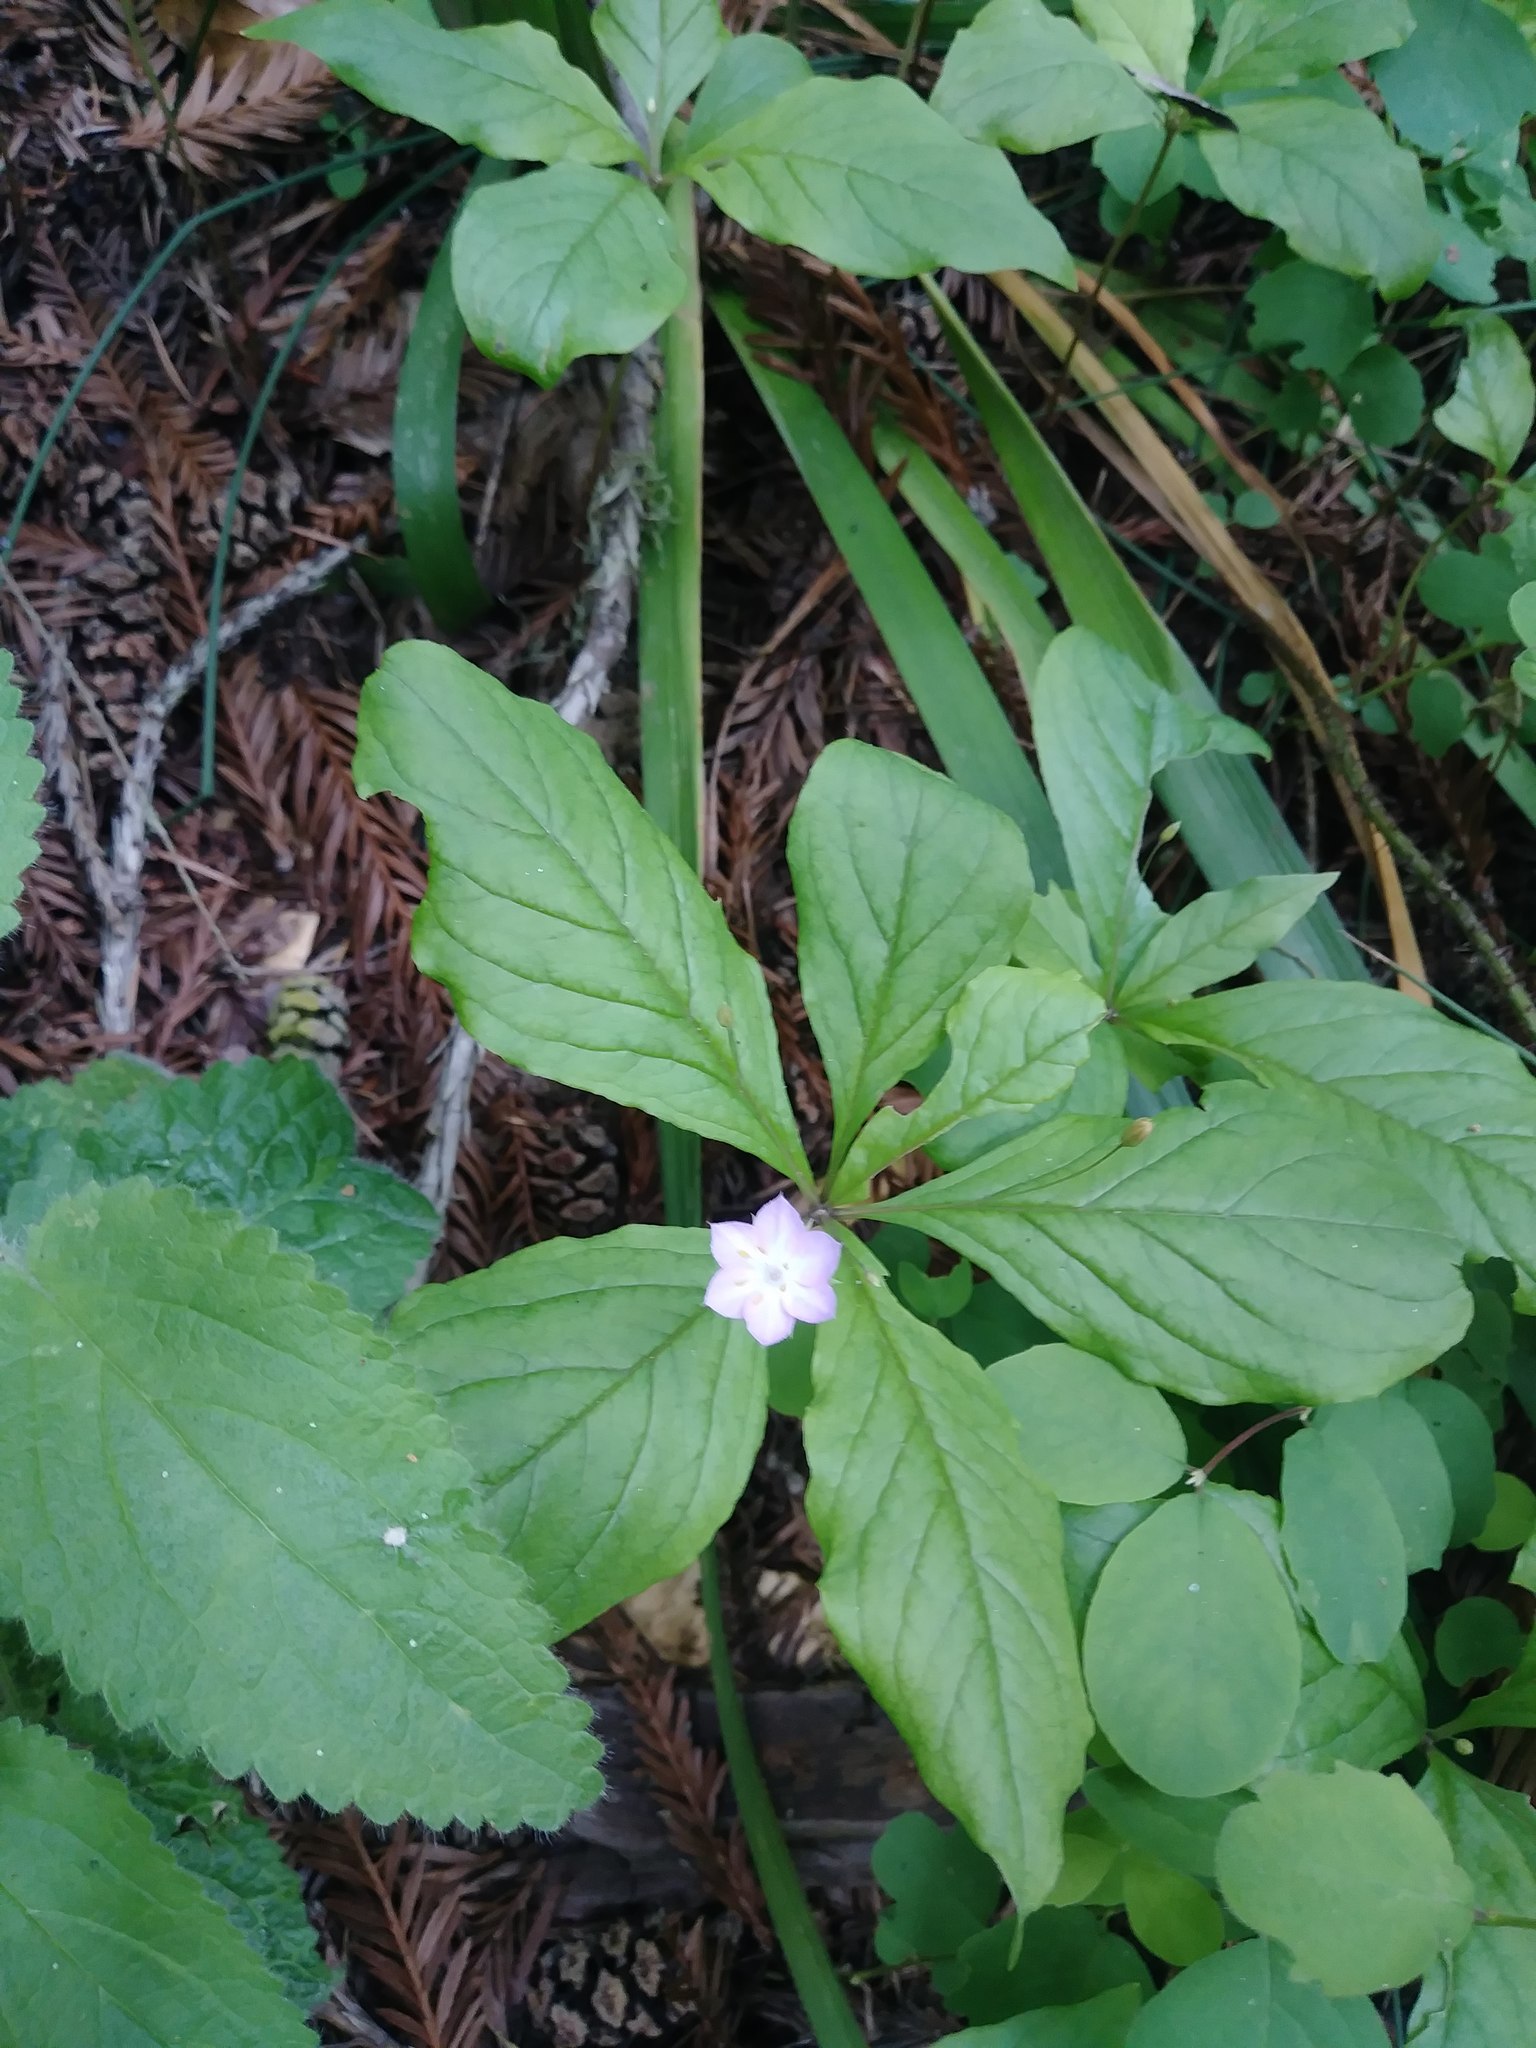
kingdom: Plantae
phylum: Tracheophyta
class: Magnoliopsida
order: Ericales
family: Primulaceae
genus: Lysimachia
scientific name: Lysimachia latifolia
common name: Pacific starflower
